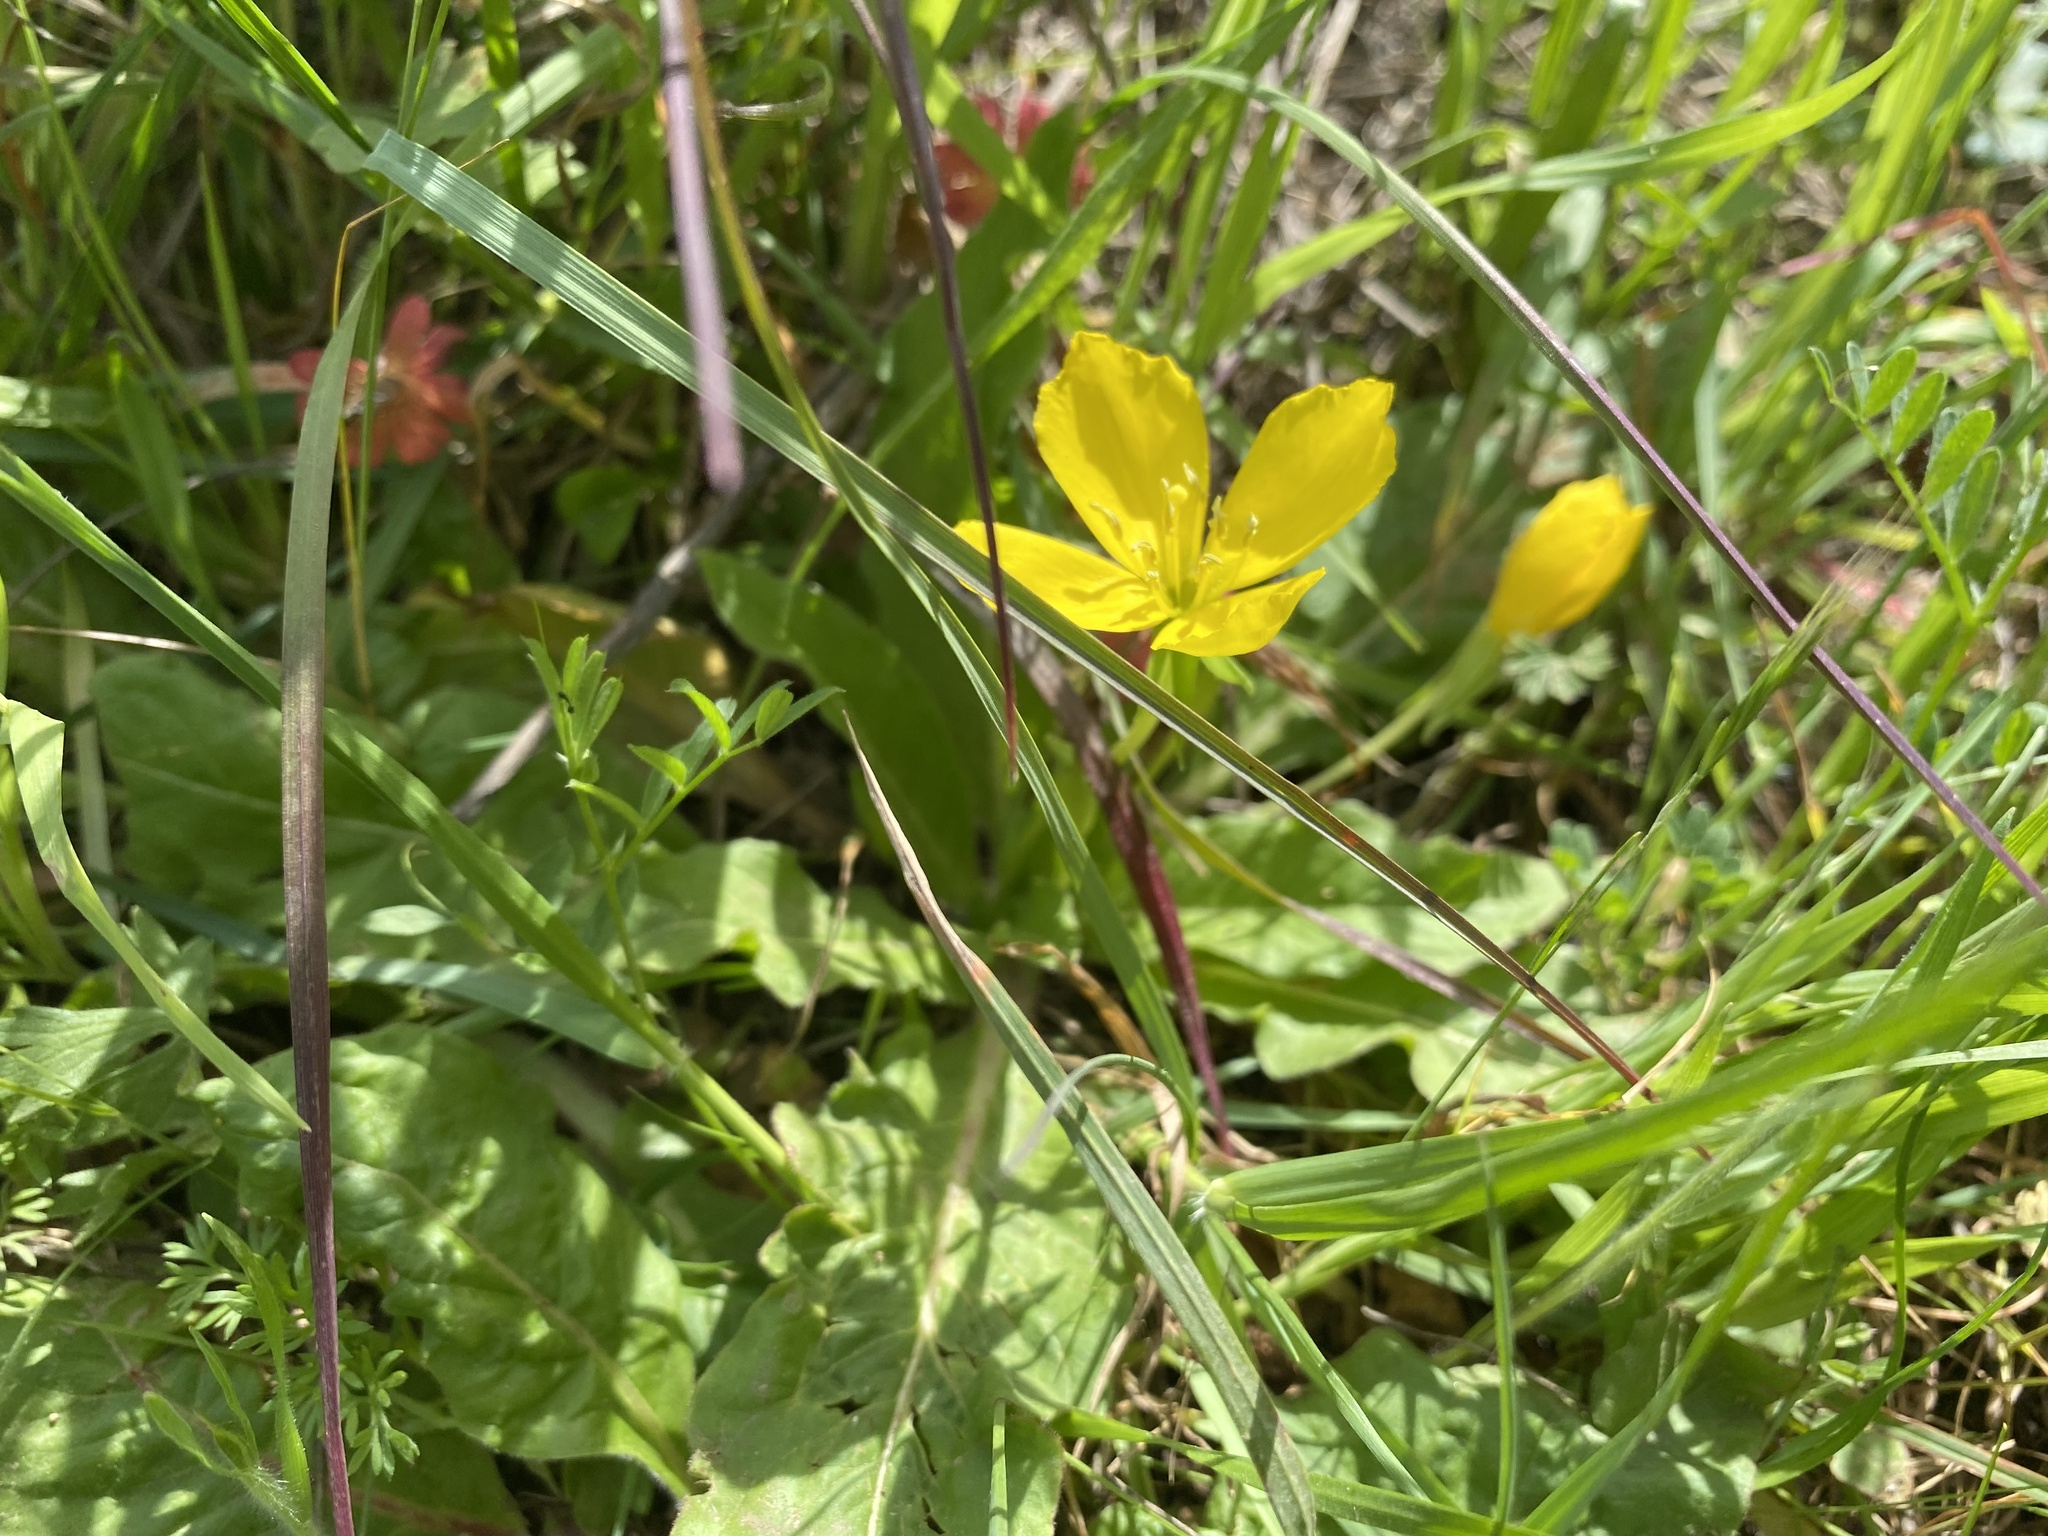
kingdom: Plantae
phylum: Tracheophyta
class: Magnoliopsida
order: Myrtales
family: Onagraceae
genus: Taraxia
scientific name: Taraxia ovata
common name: Goldeneggs
